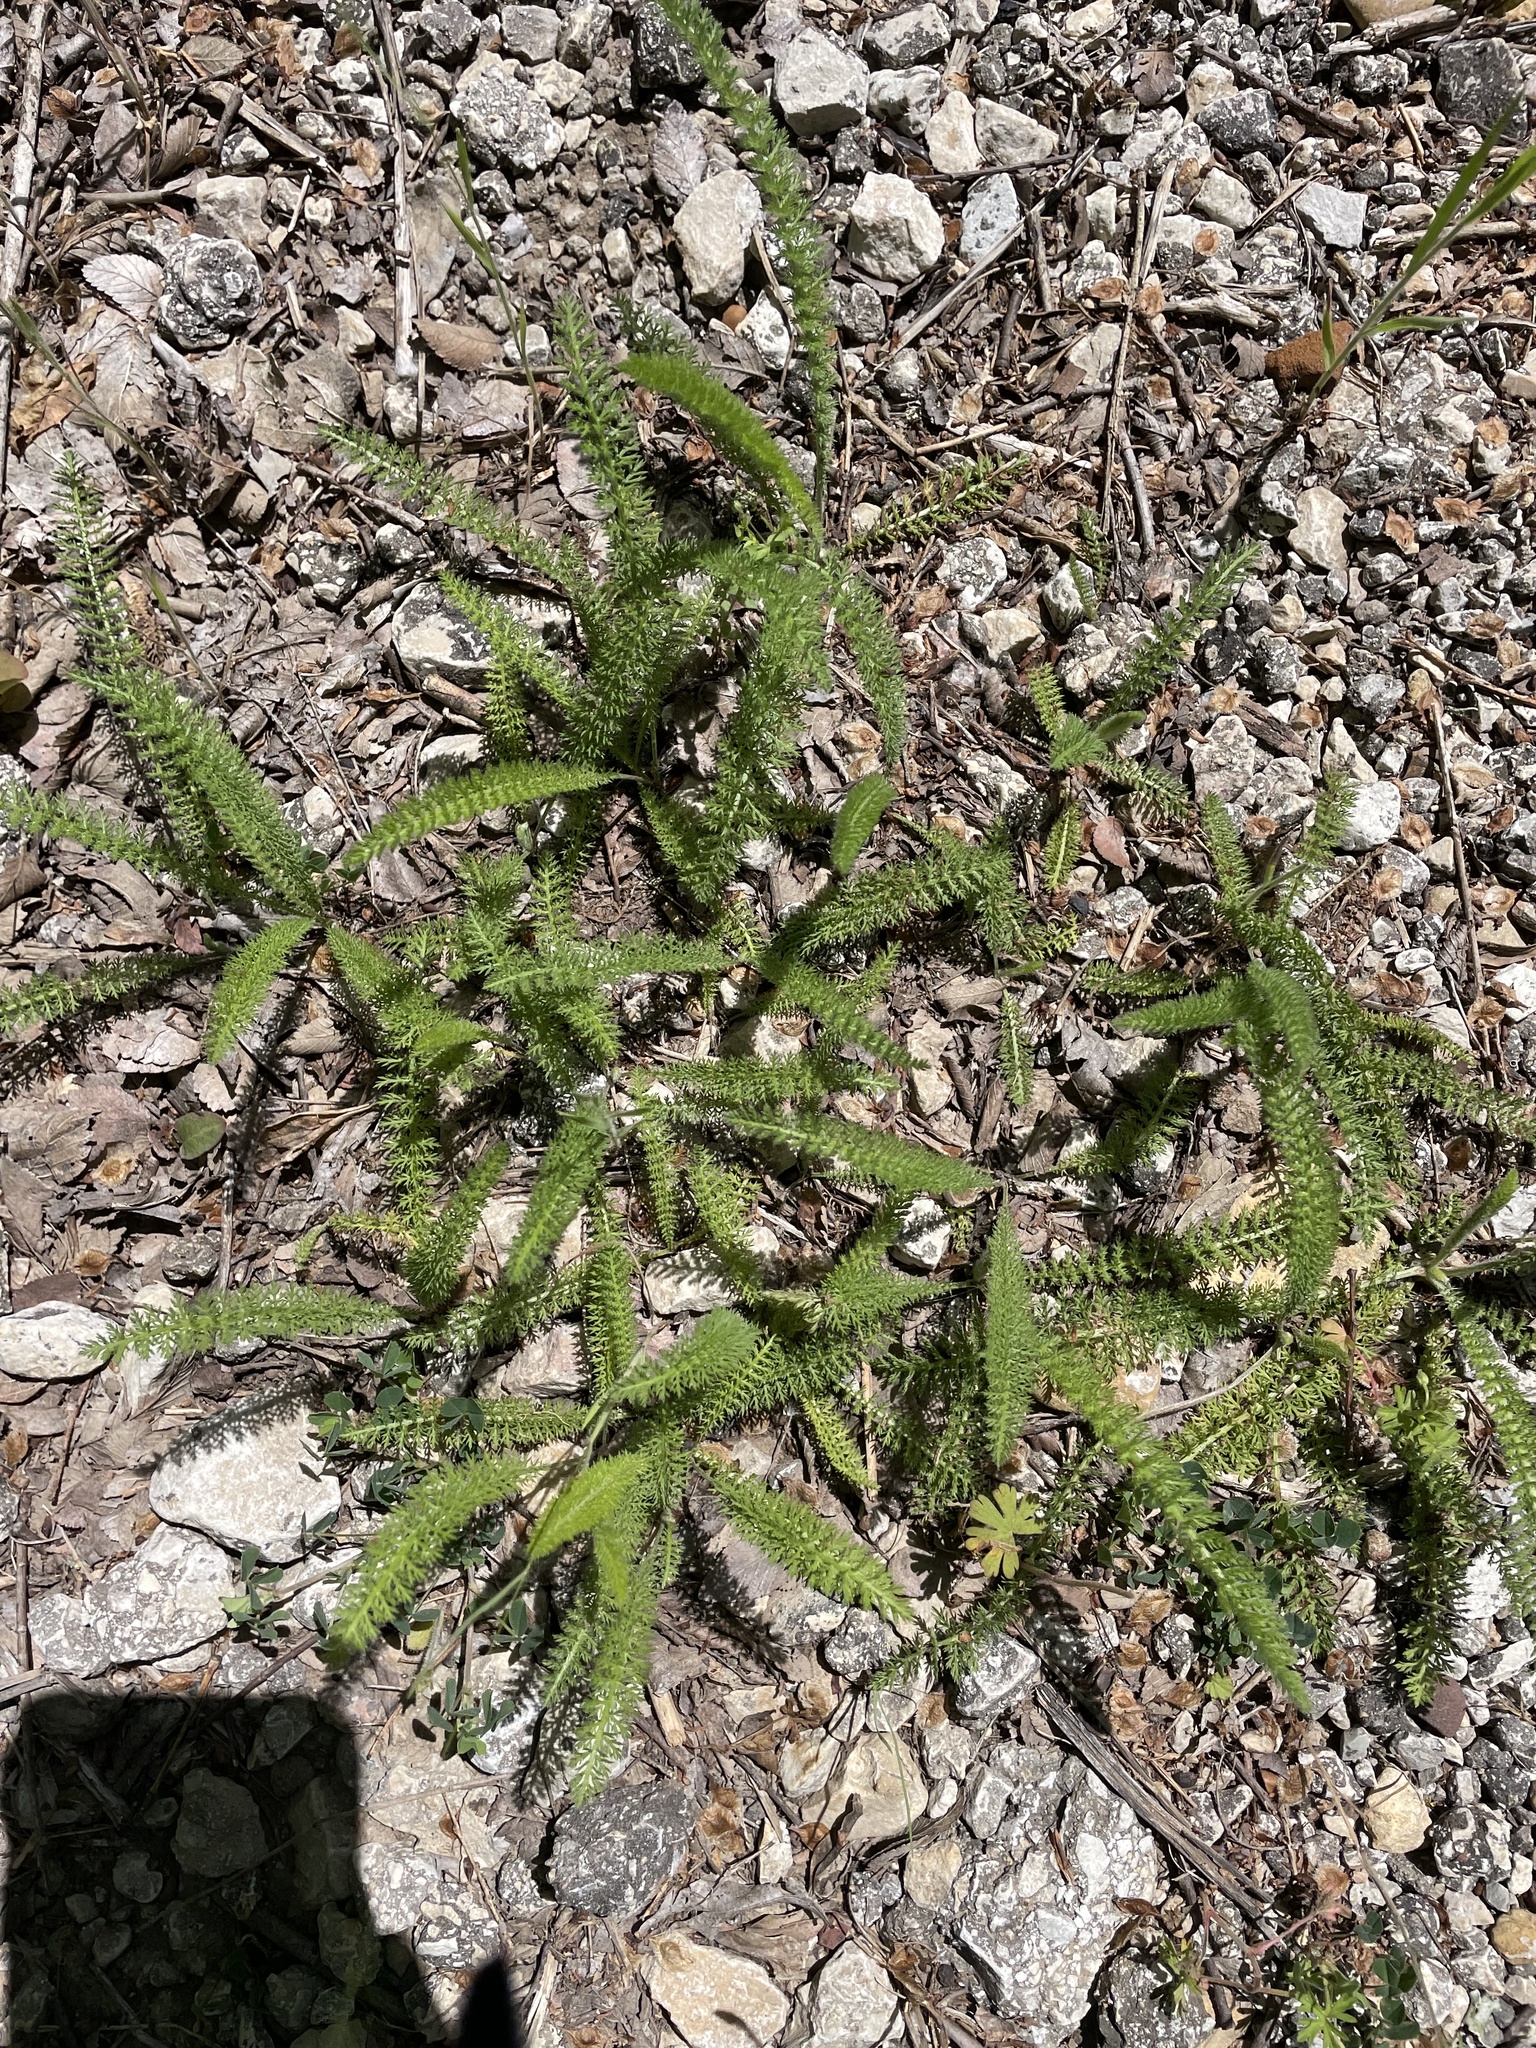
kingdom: Plantae
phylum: Tracheophyta
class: Magnoliopsida
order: Asterales
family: Asteraceae
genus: Achillea
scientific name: Achillea millefolium
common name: Yarrow
